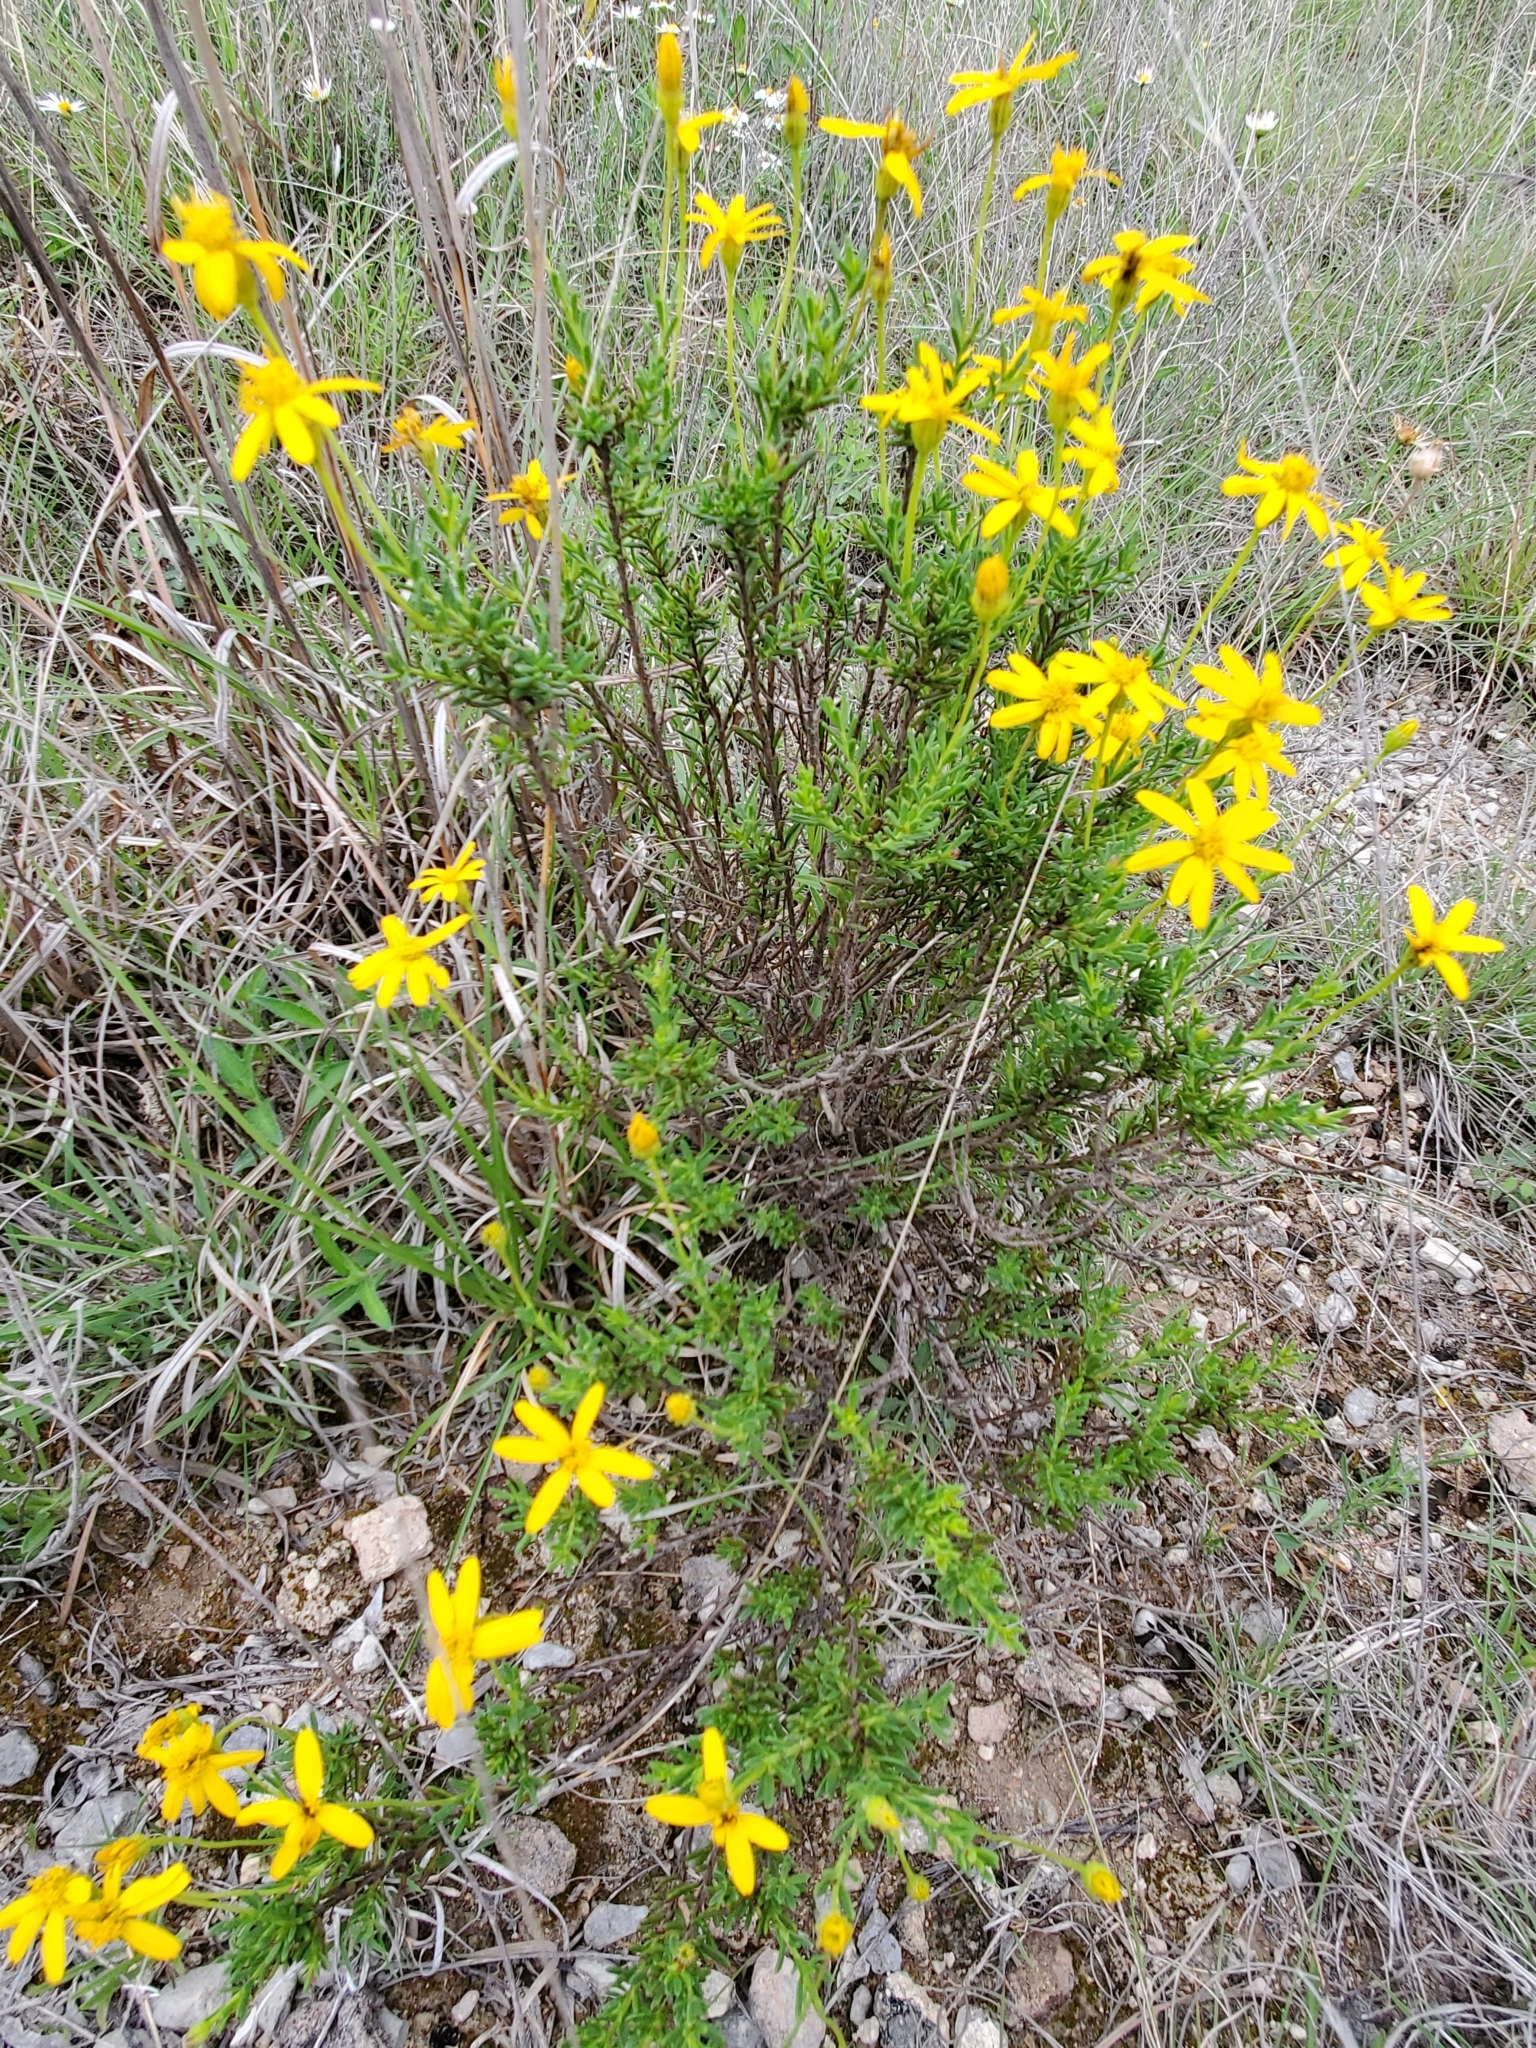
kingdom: Plantae
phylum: Tracheophyta
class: Magnoliopsida
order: Asterales
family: Asteraceae
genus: Chrysactinia
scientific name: Chrysactinia mexicana
